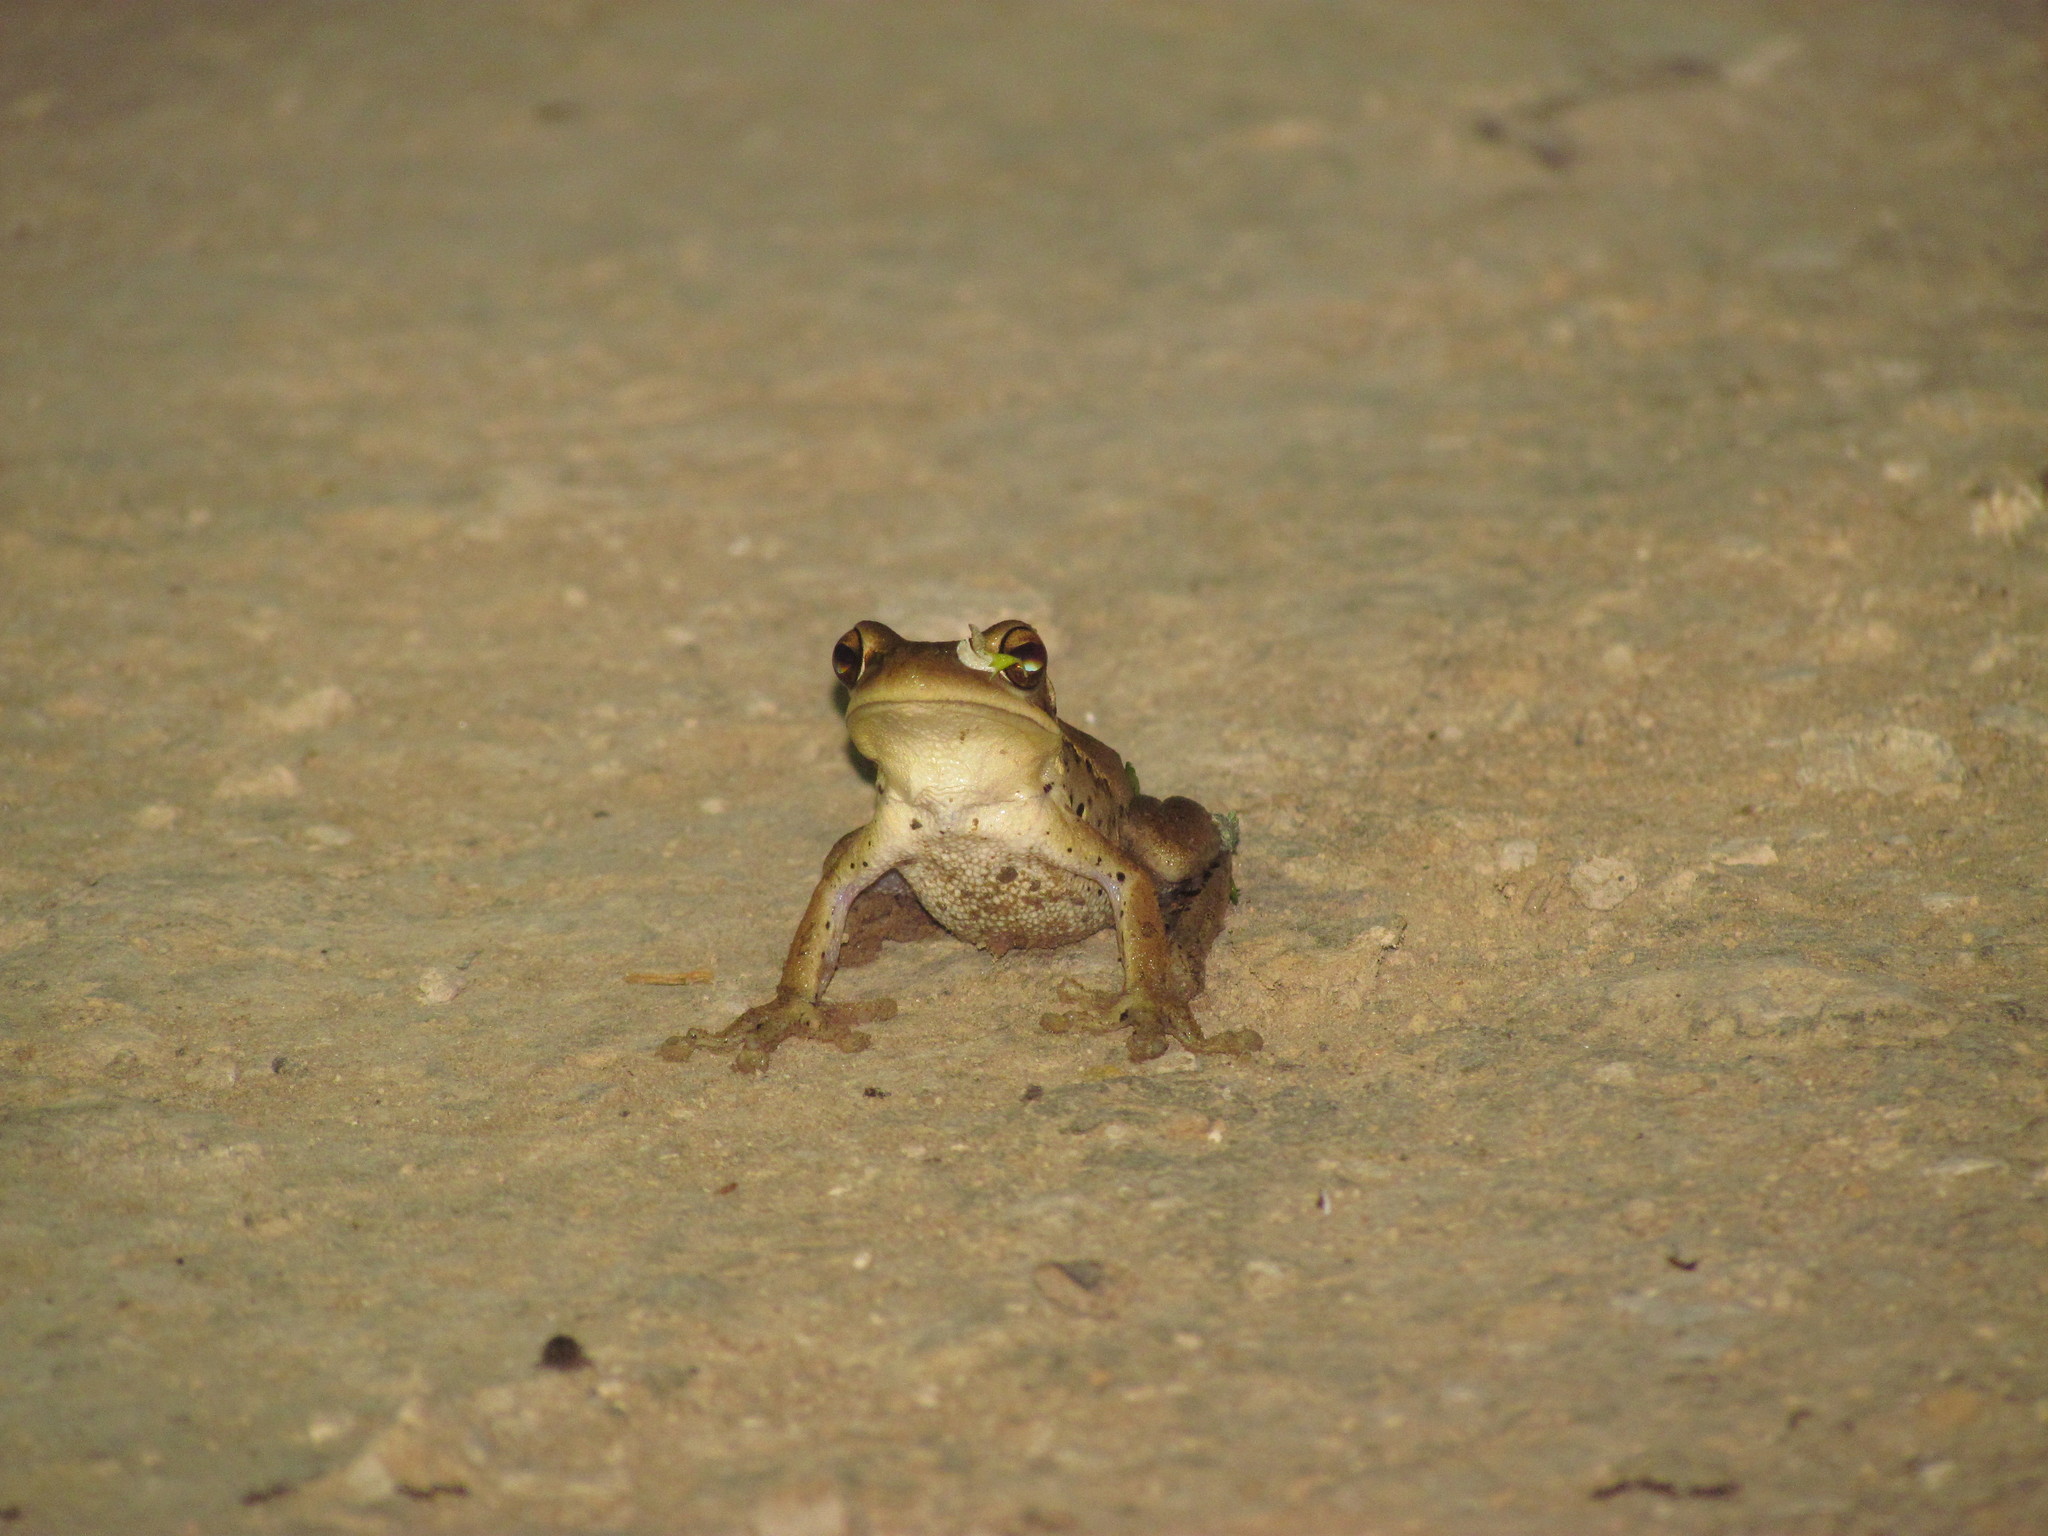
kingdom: Animalia
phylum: Chordata
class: Amphibia
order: Anura
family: Hylidae
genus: Boana
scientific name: Boana pulchella
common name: Montevideo treefrog
